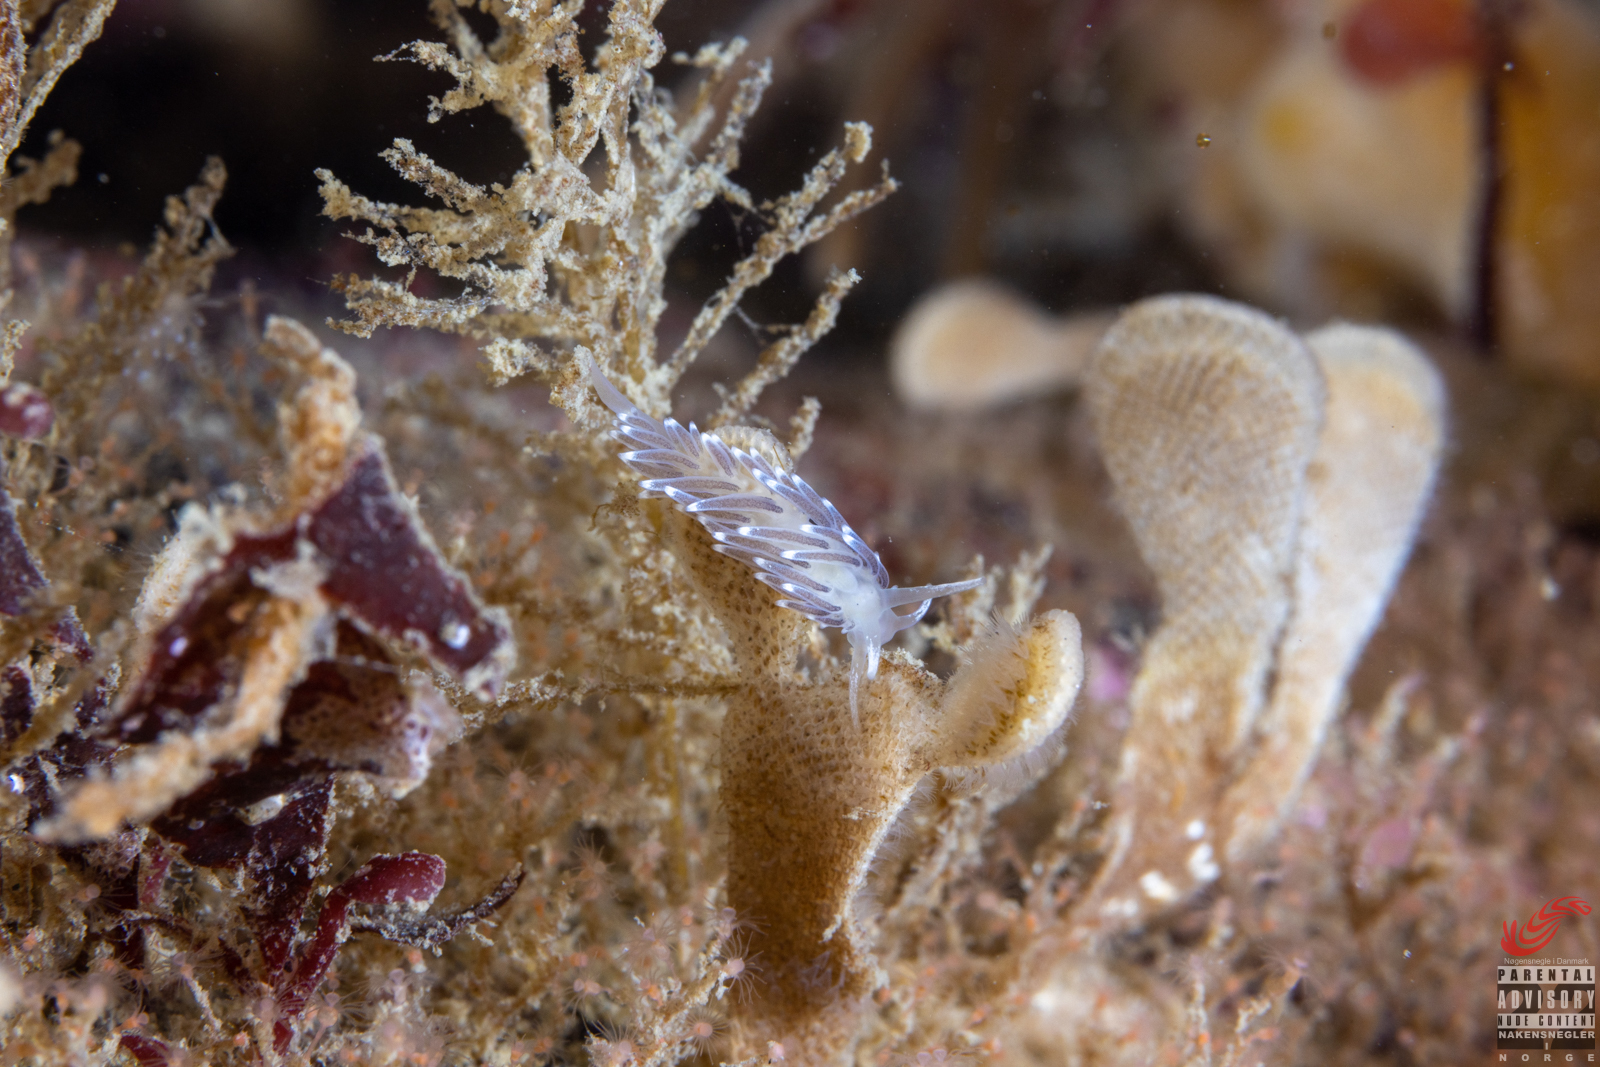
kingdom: Animalia
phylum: Mollusca
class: Gastropoda
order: Nudibranchia
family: Cuthonellidae
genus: Cuthonella
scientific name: Cuthonella concinna
